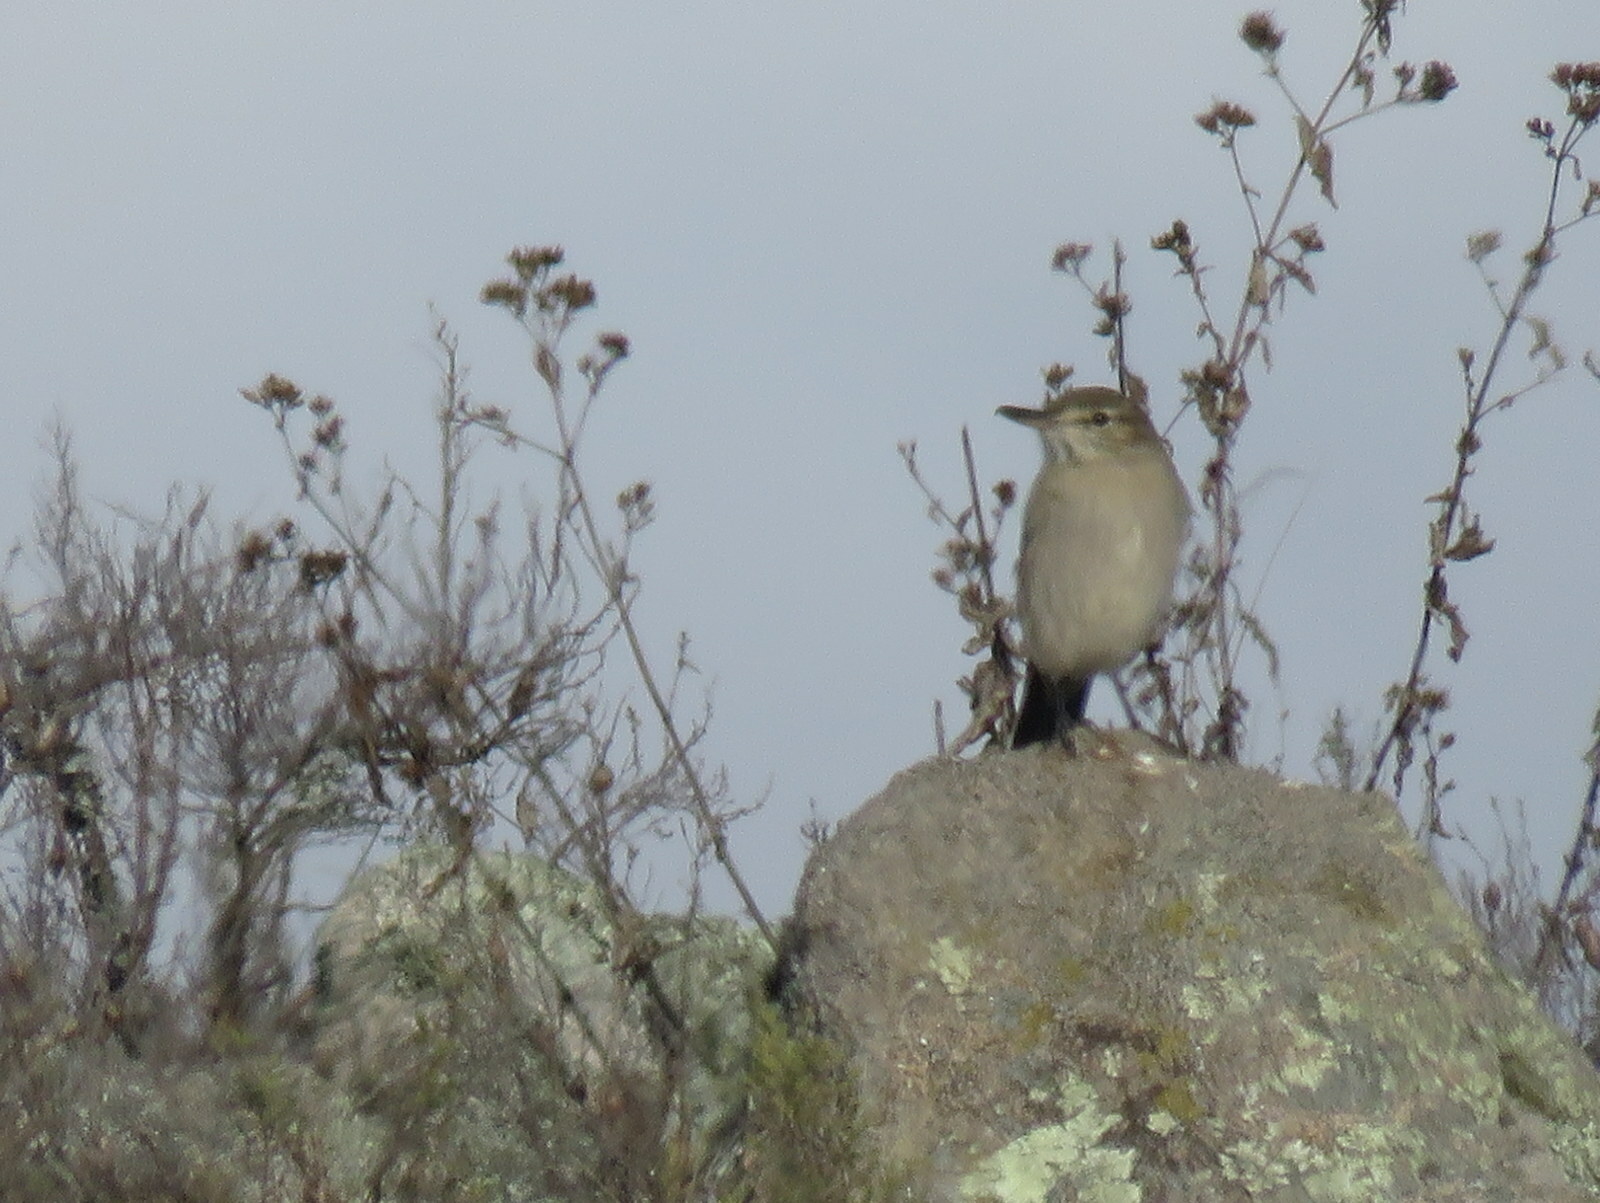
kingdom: Animalia
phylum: Chordata
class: Aves
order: Passeriformes
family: Tyrannidae
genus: Agriornis
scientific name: Agriornis micropterus
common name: Grey-bellied shrike-tyrant
